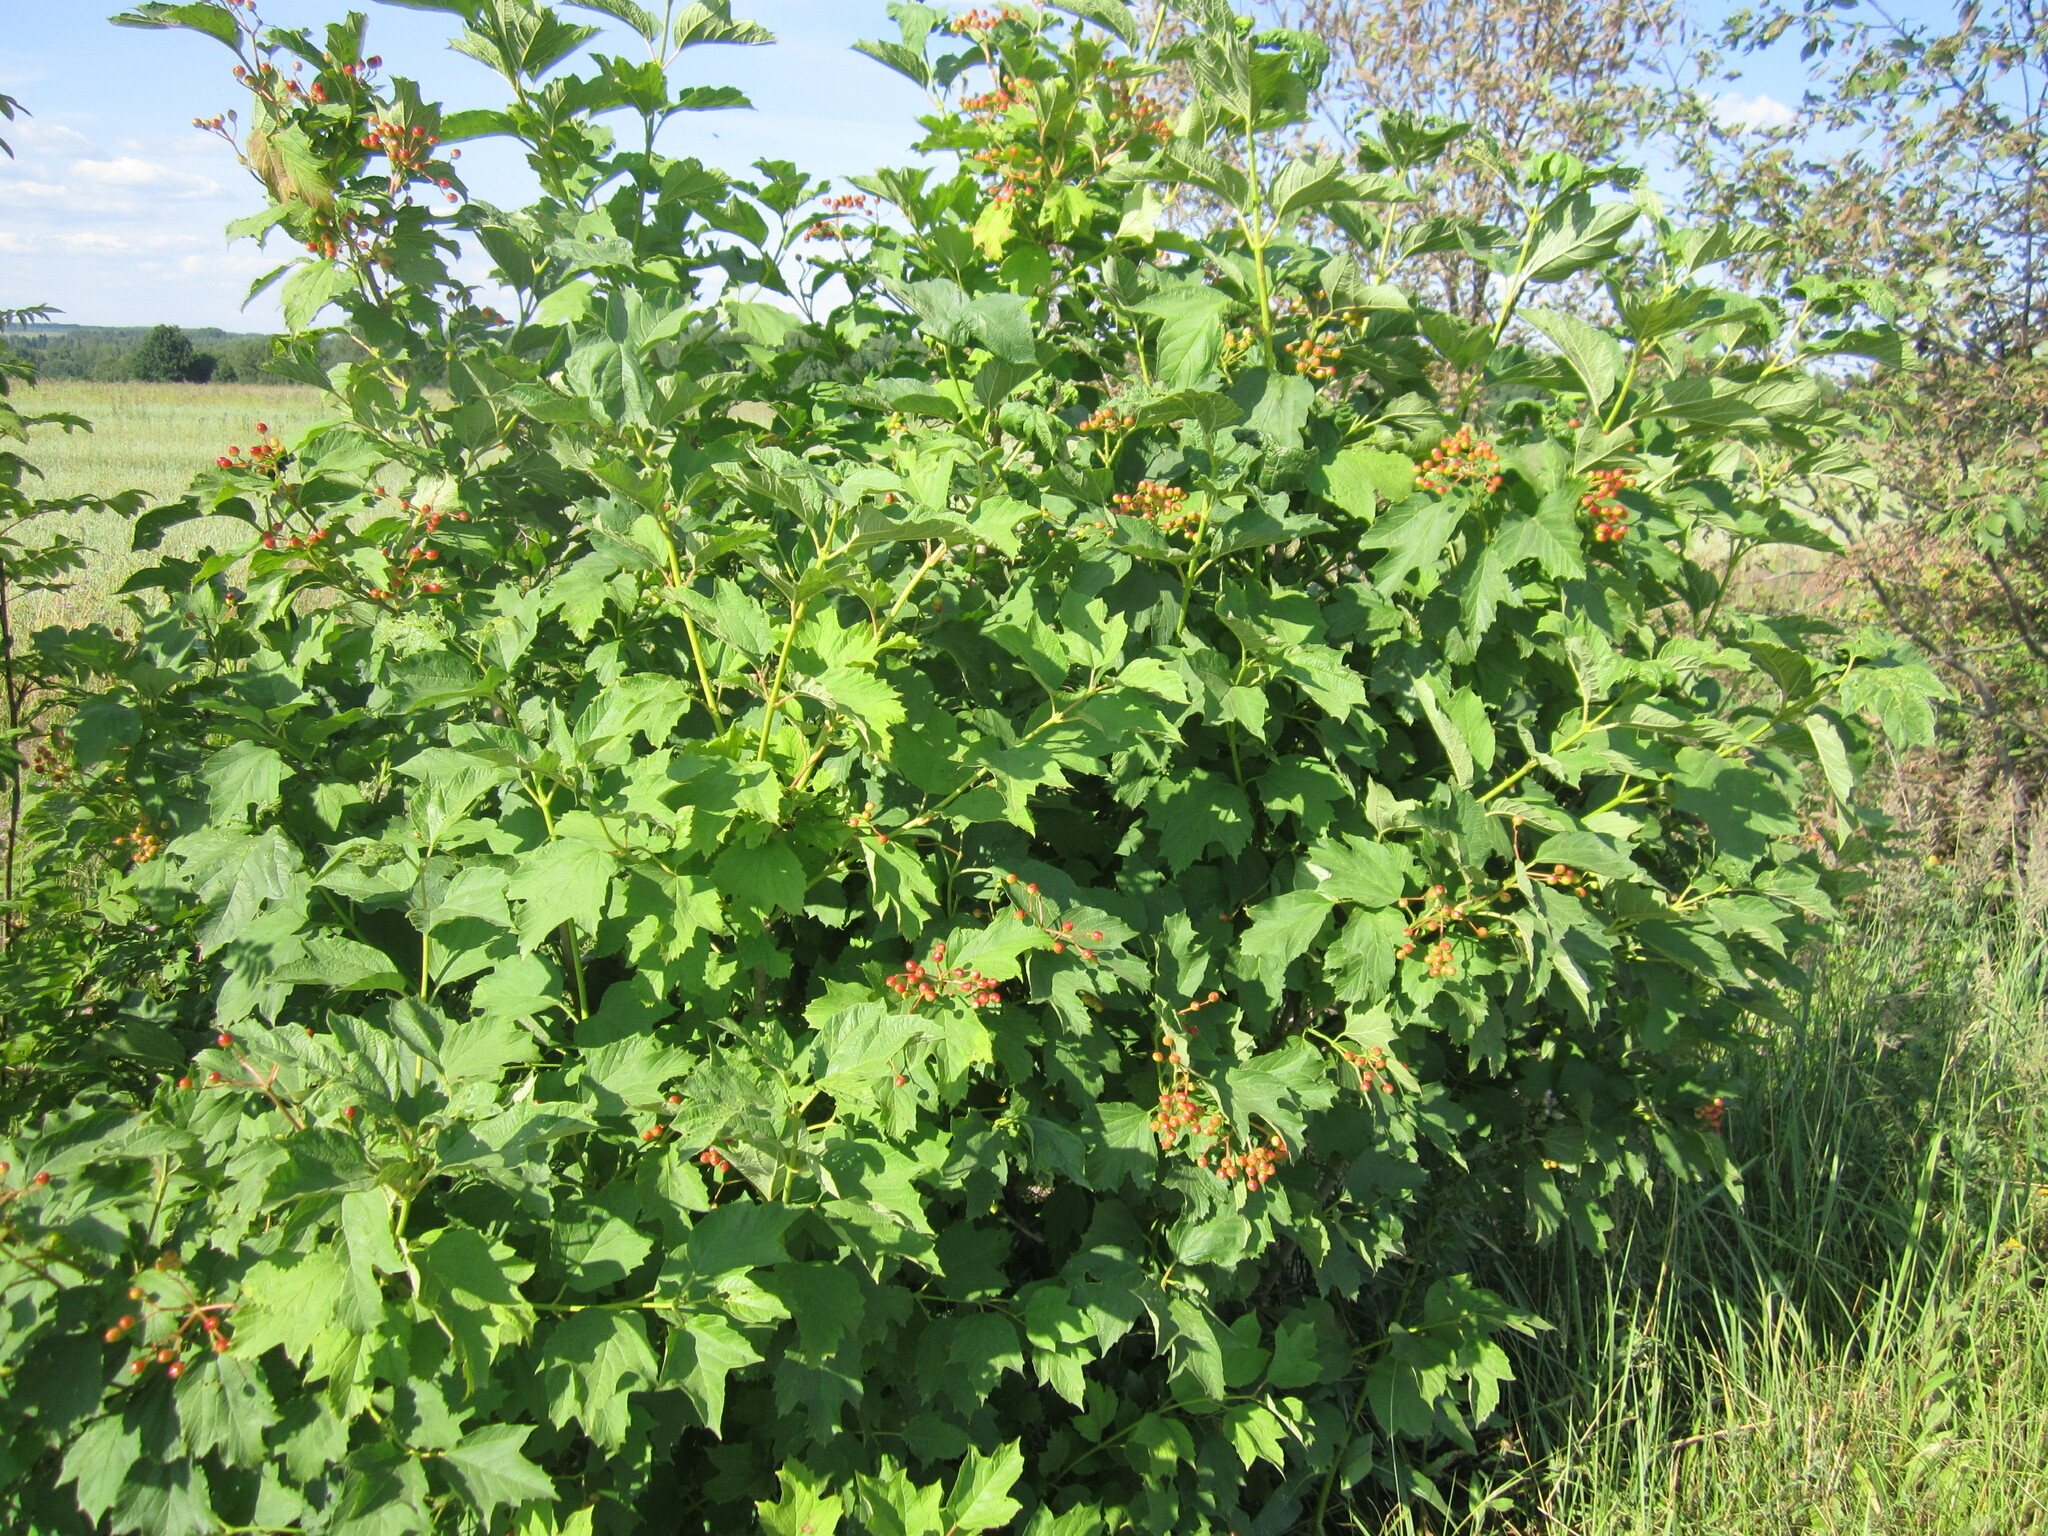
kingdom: Plantae
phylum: Tracheophyta
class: Magnoliopsida
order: Dipsacales
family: Viburnaceae
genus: Viburnum
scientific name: Viburnum opulus
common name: Guelder-rose
